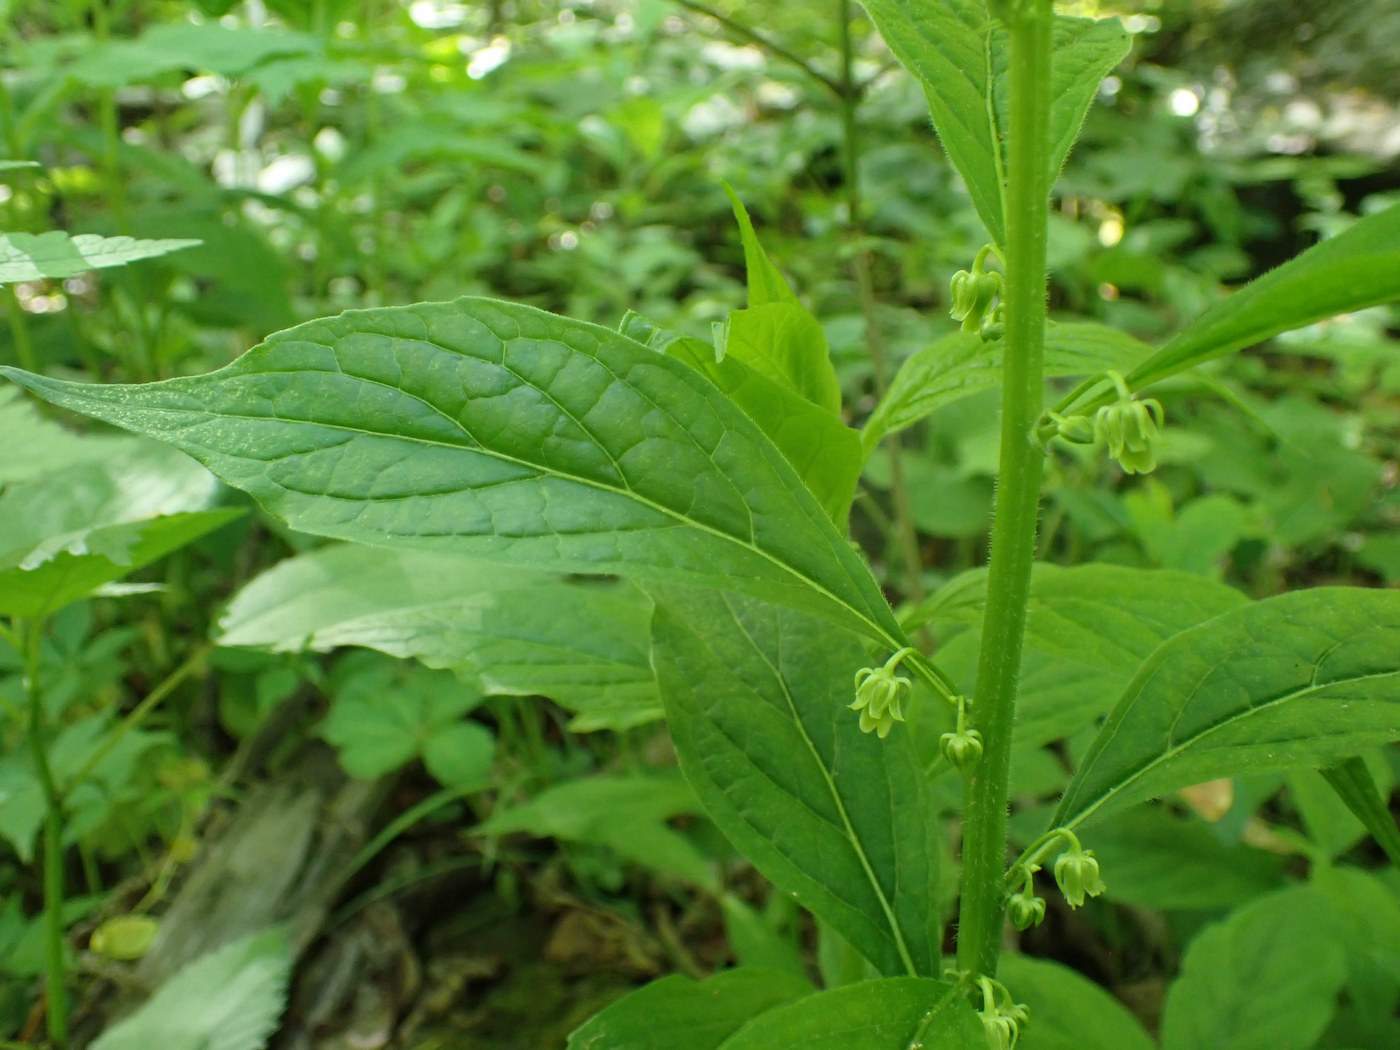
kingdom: Plantae
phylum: Tracheophyta
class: Magnoliopsida
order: Malpighiales
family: Violaceae
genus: Cubelium
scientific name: Cubelium concolor
